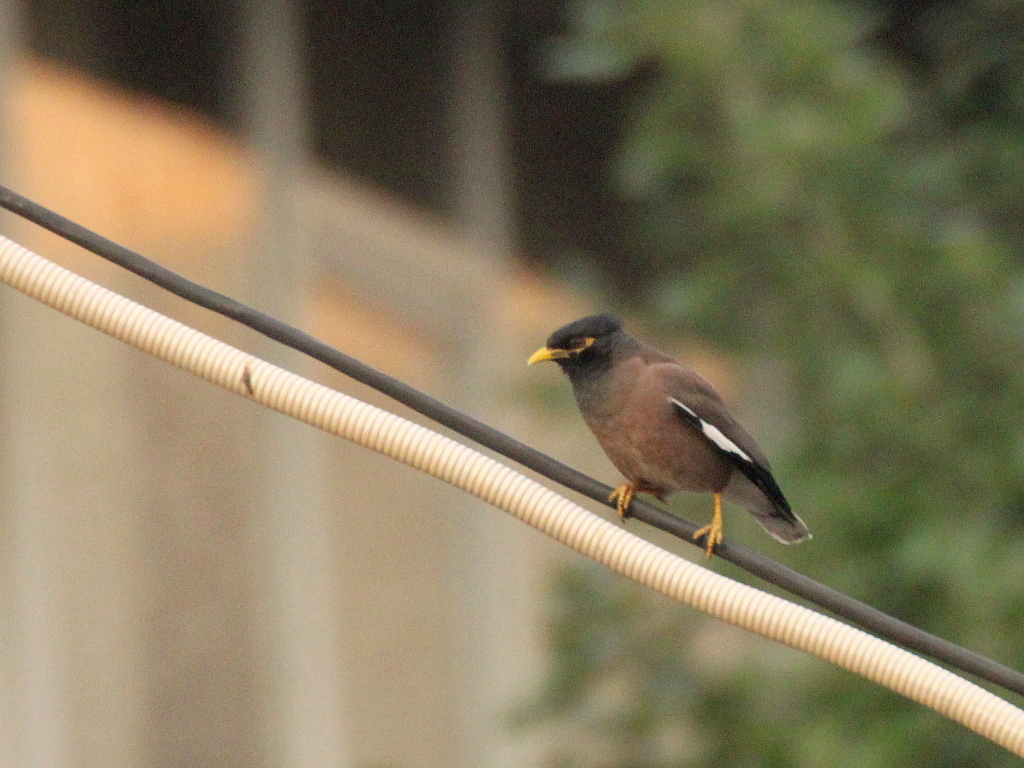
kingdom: Animalia
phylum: Chordata
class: Aves
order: Passeriformes
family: Sturnidae
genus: Acridotheres
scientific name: Acridotheres tristis
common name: Common myna
